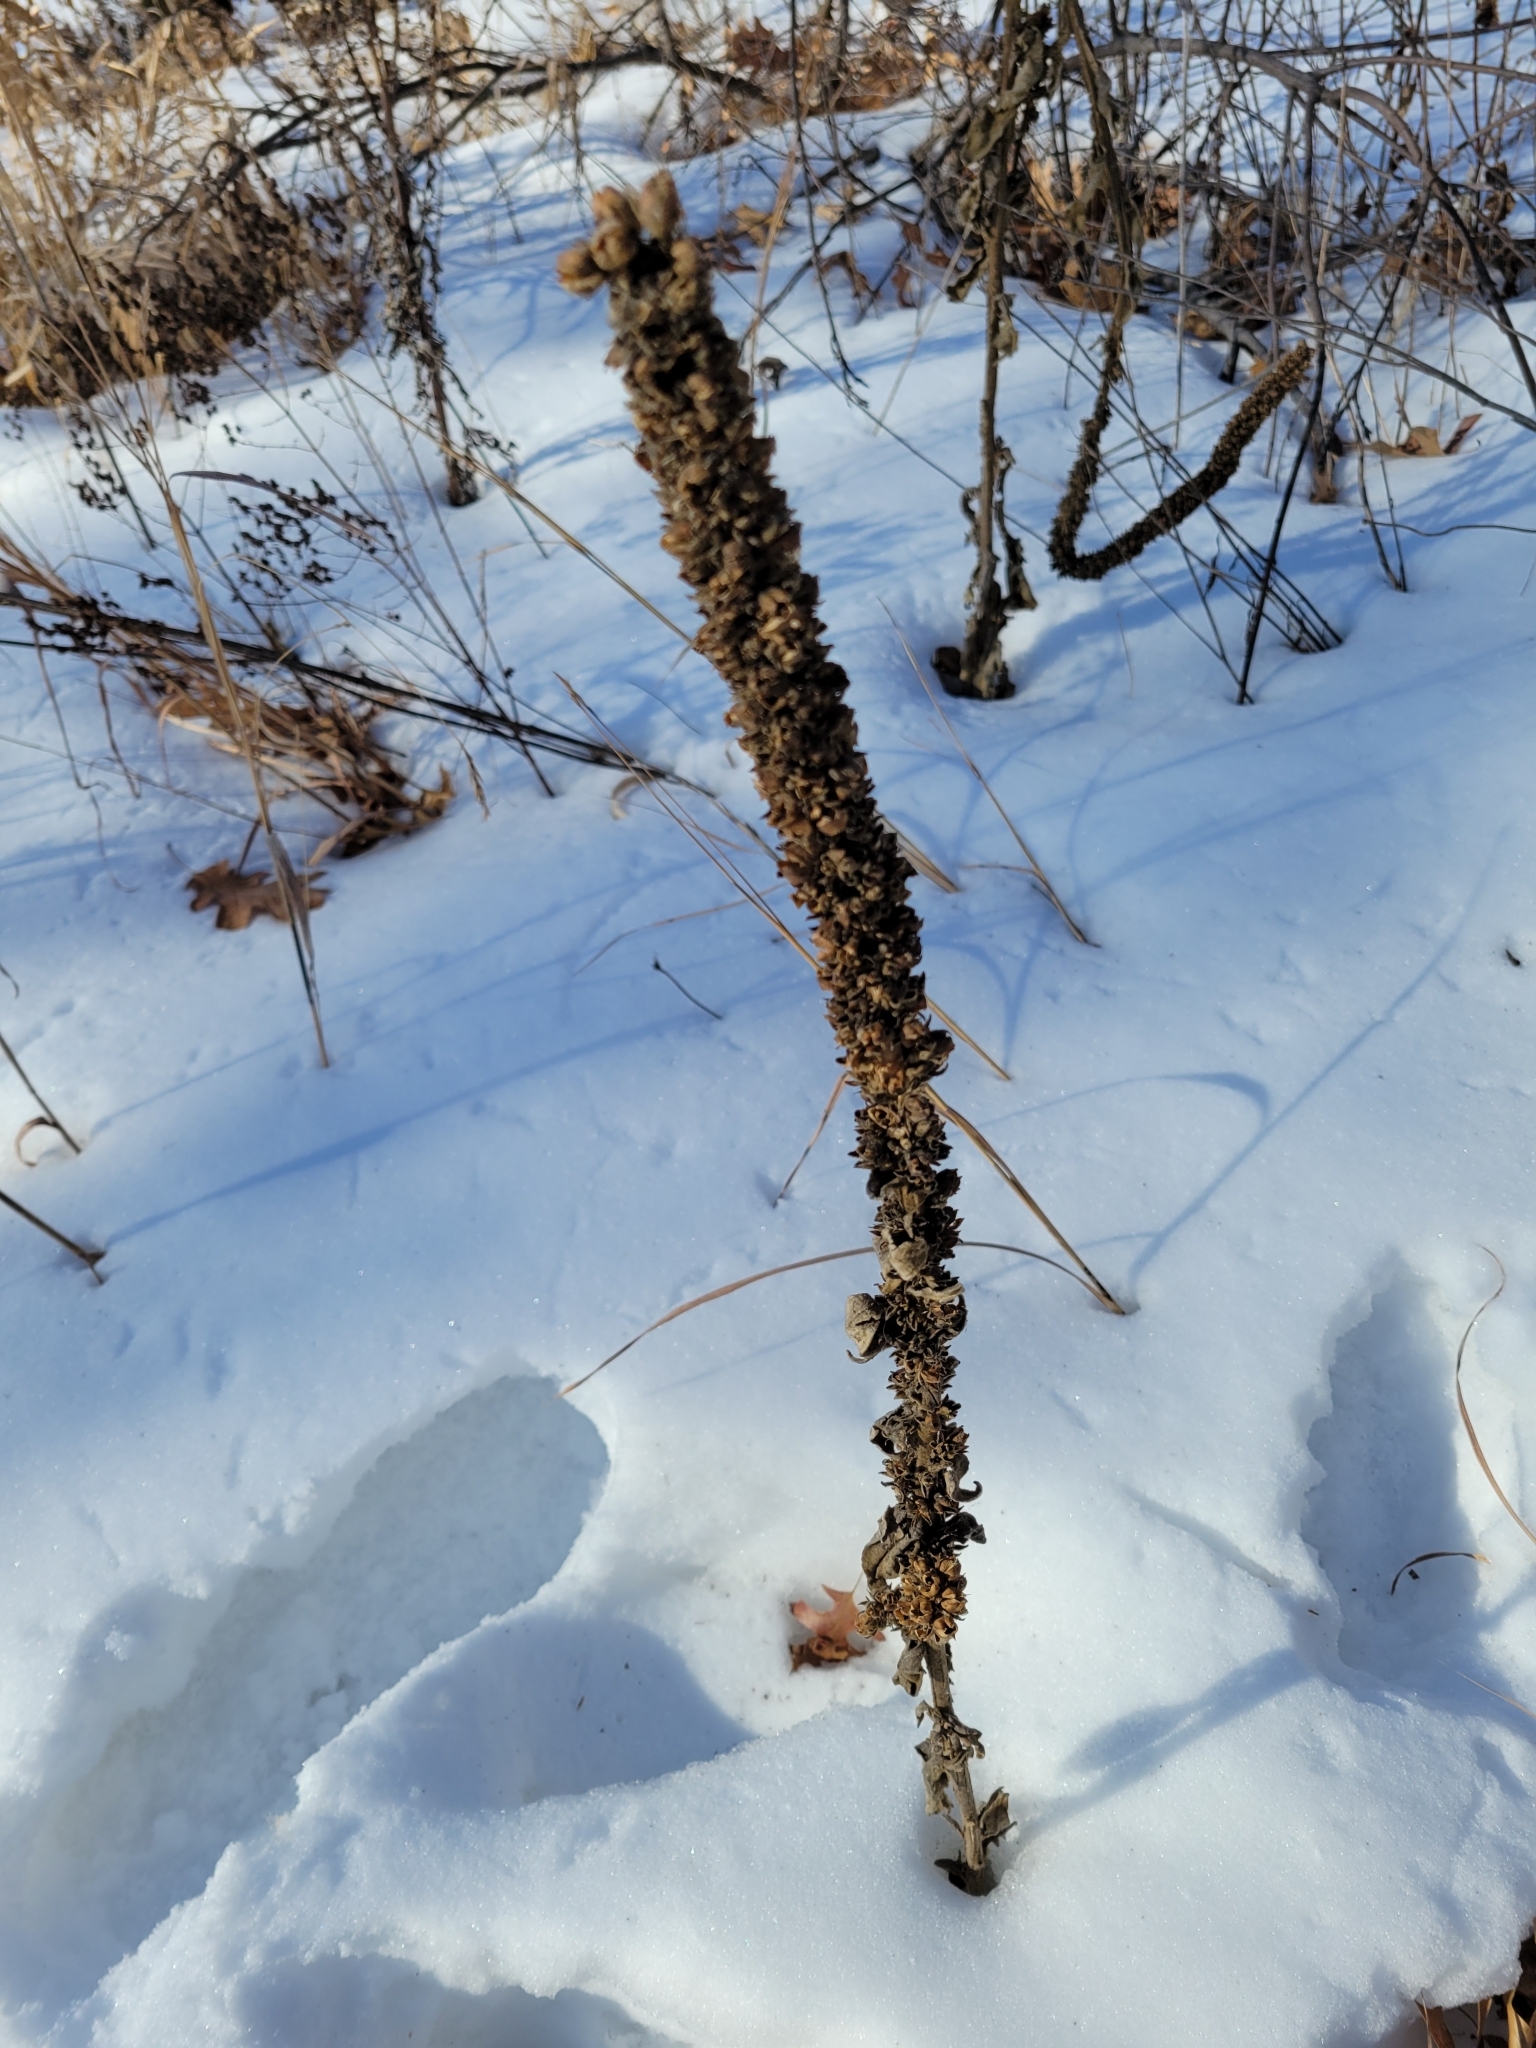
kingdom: Plantae
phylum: Tracheophyta
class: Magnoliopsida
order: Lamiales
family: Scrophulariaceae
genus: Verbascum
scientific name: Verbascum thapsus
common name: Common mullein
